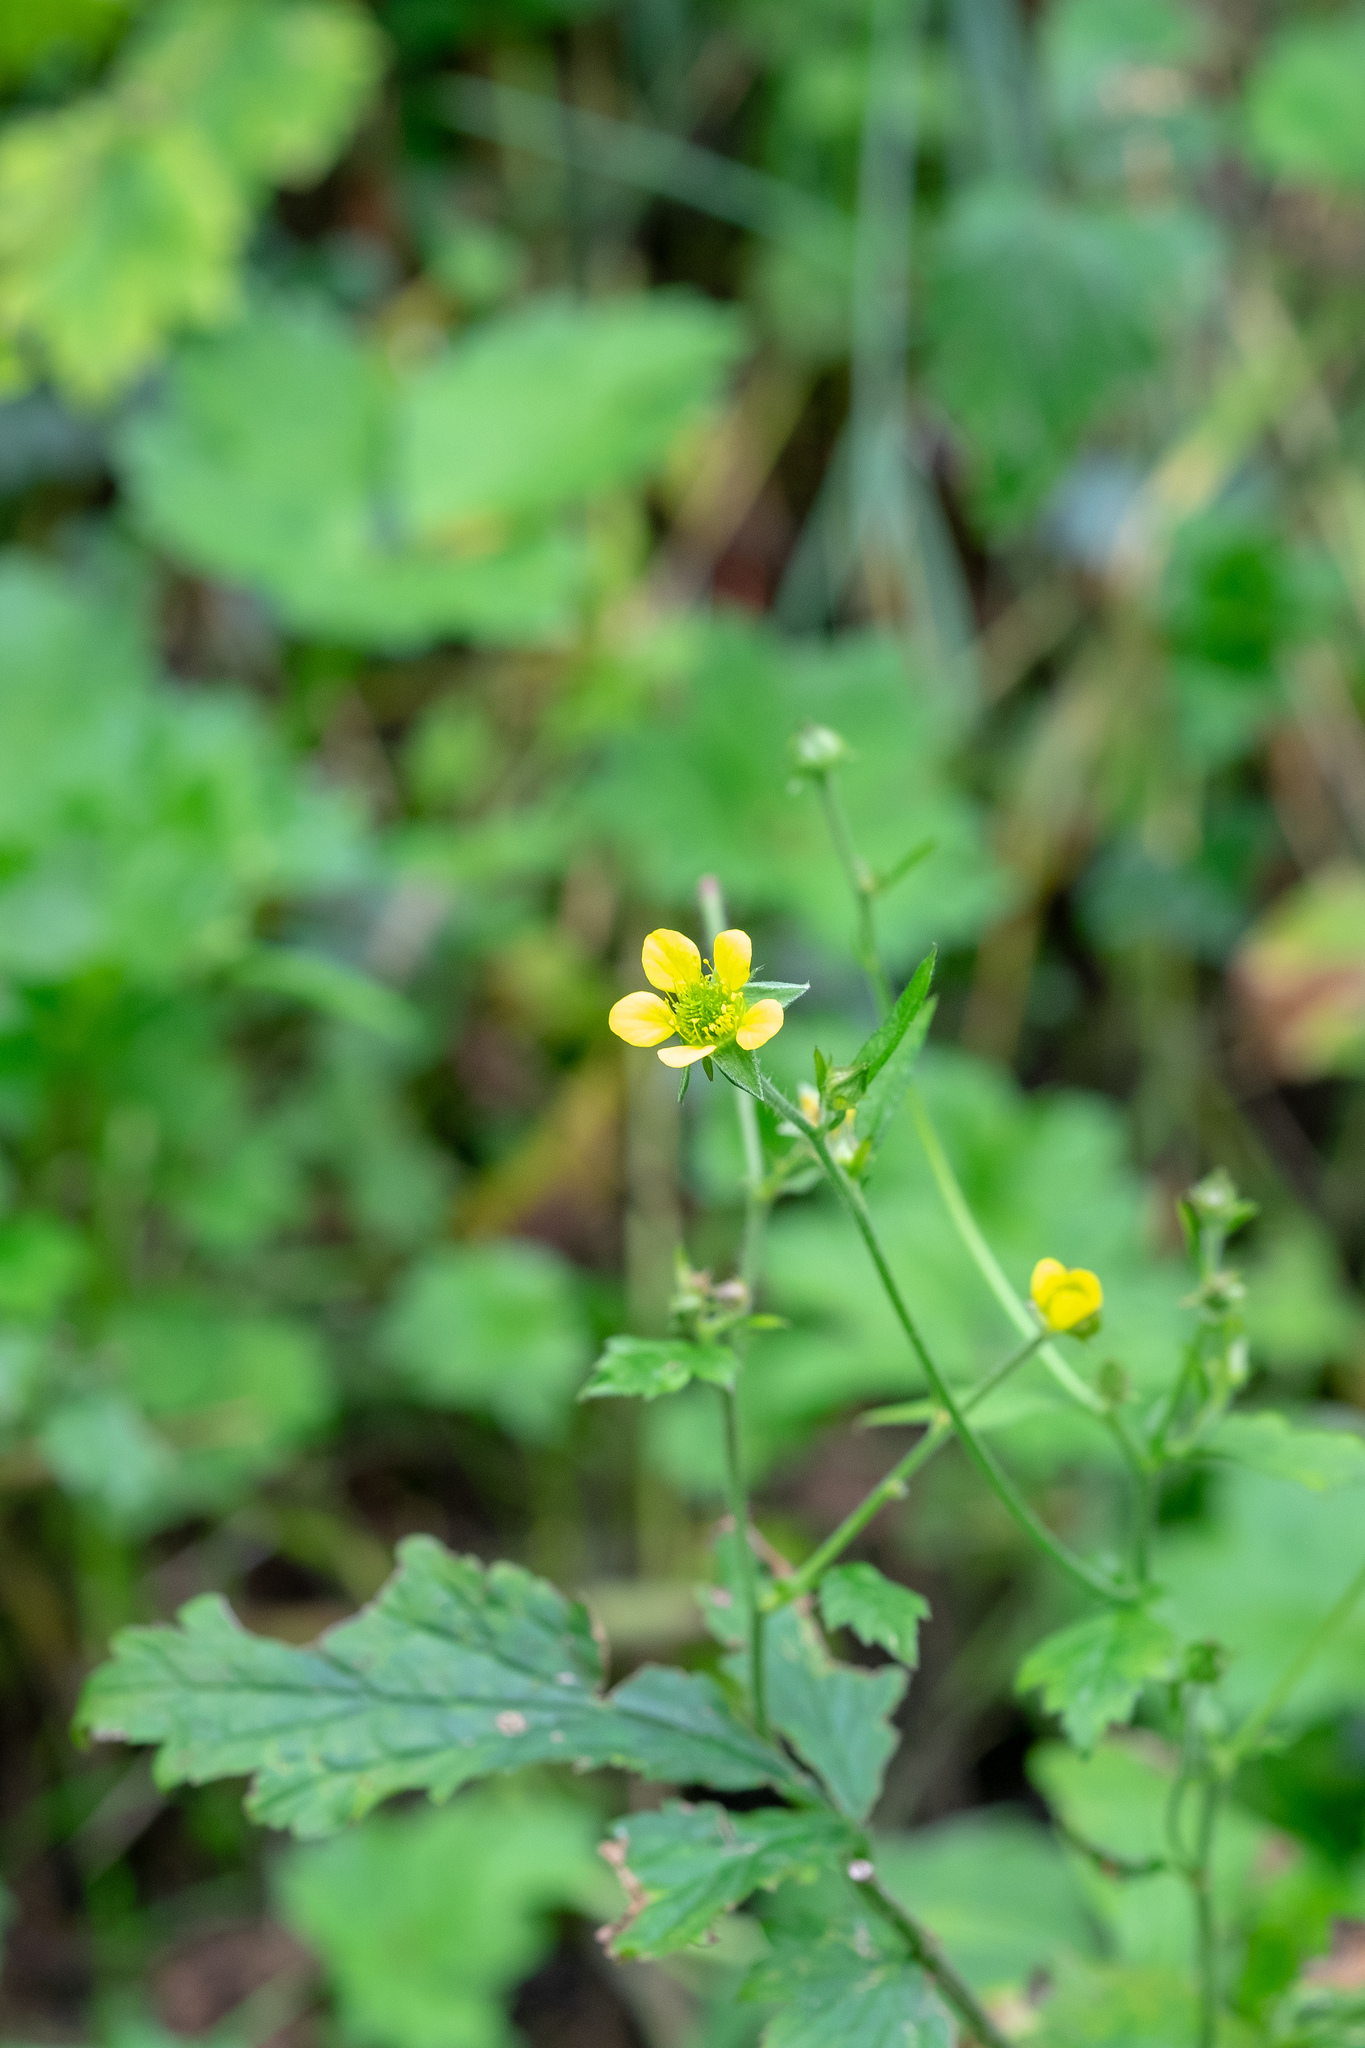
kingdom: Plantae
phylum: Tracheophyta
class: Magnoliopsida
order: Rosales
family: Rosaceae
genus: Geum
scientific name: Geum urbanum
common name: Wood avens
